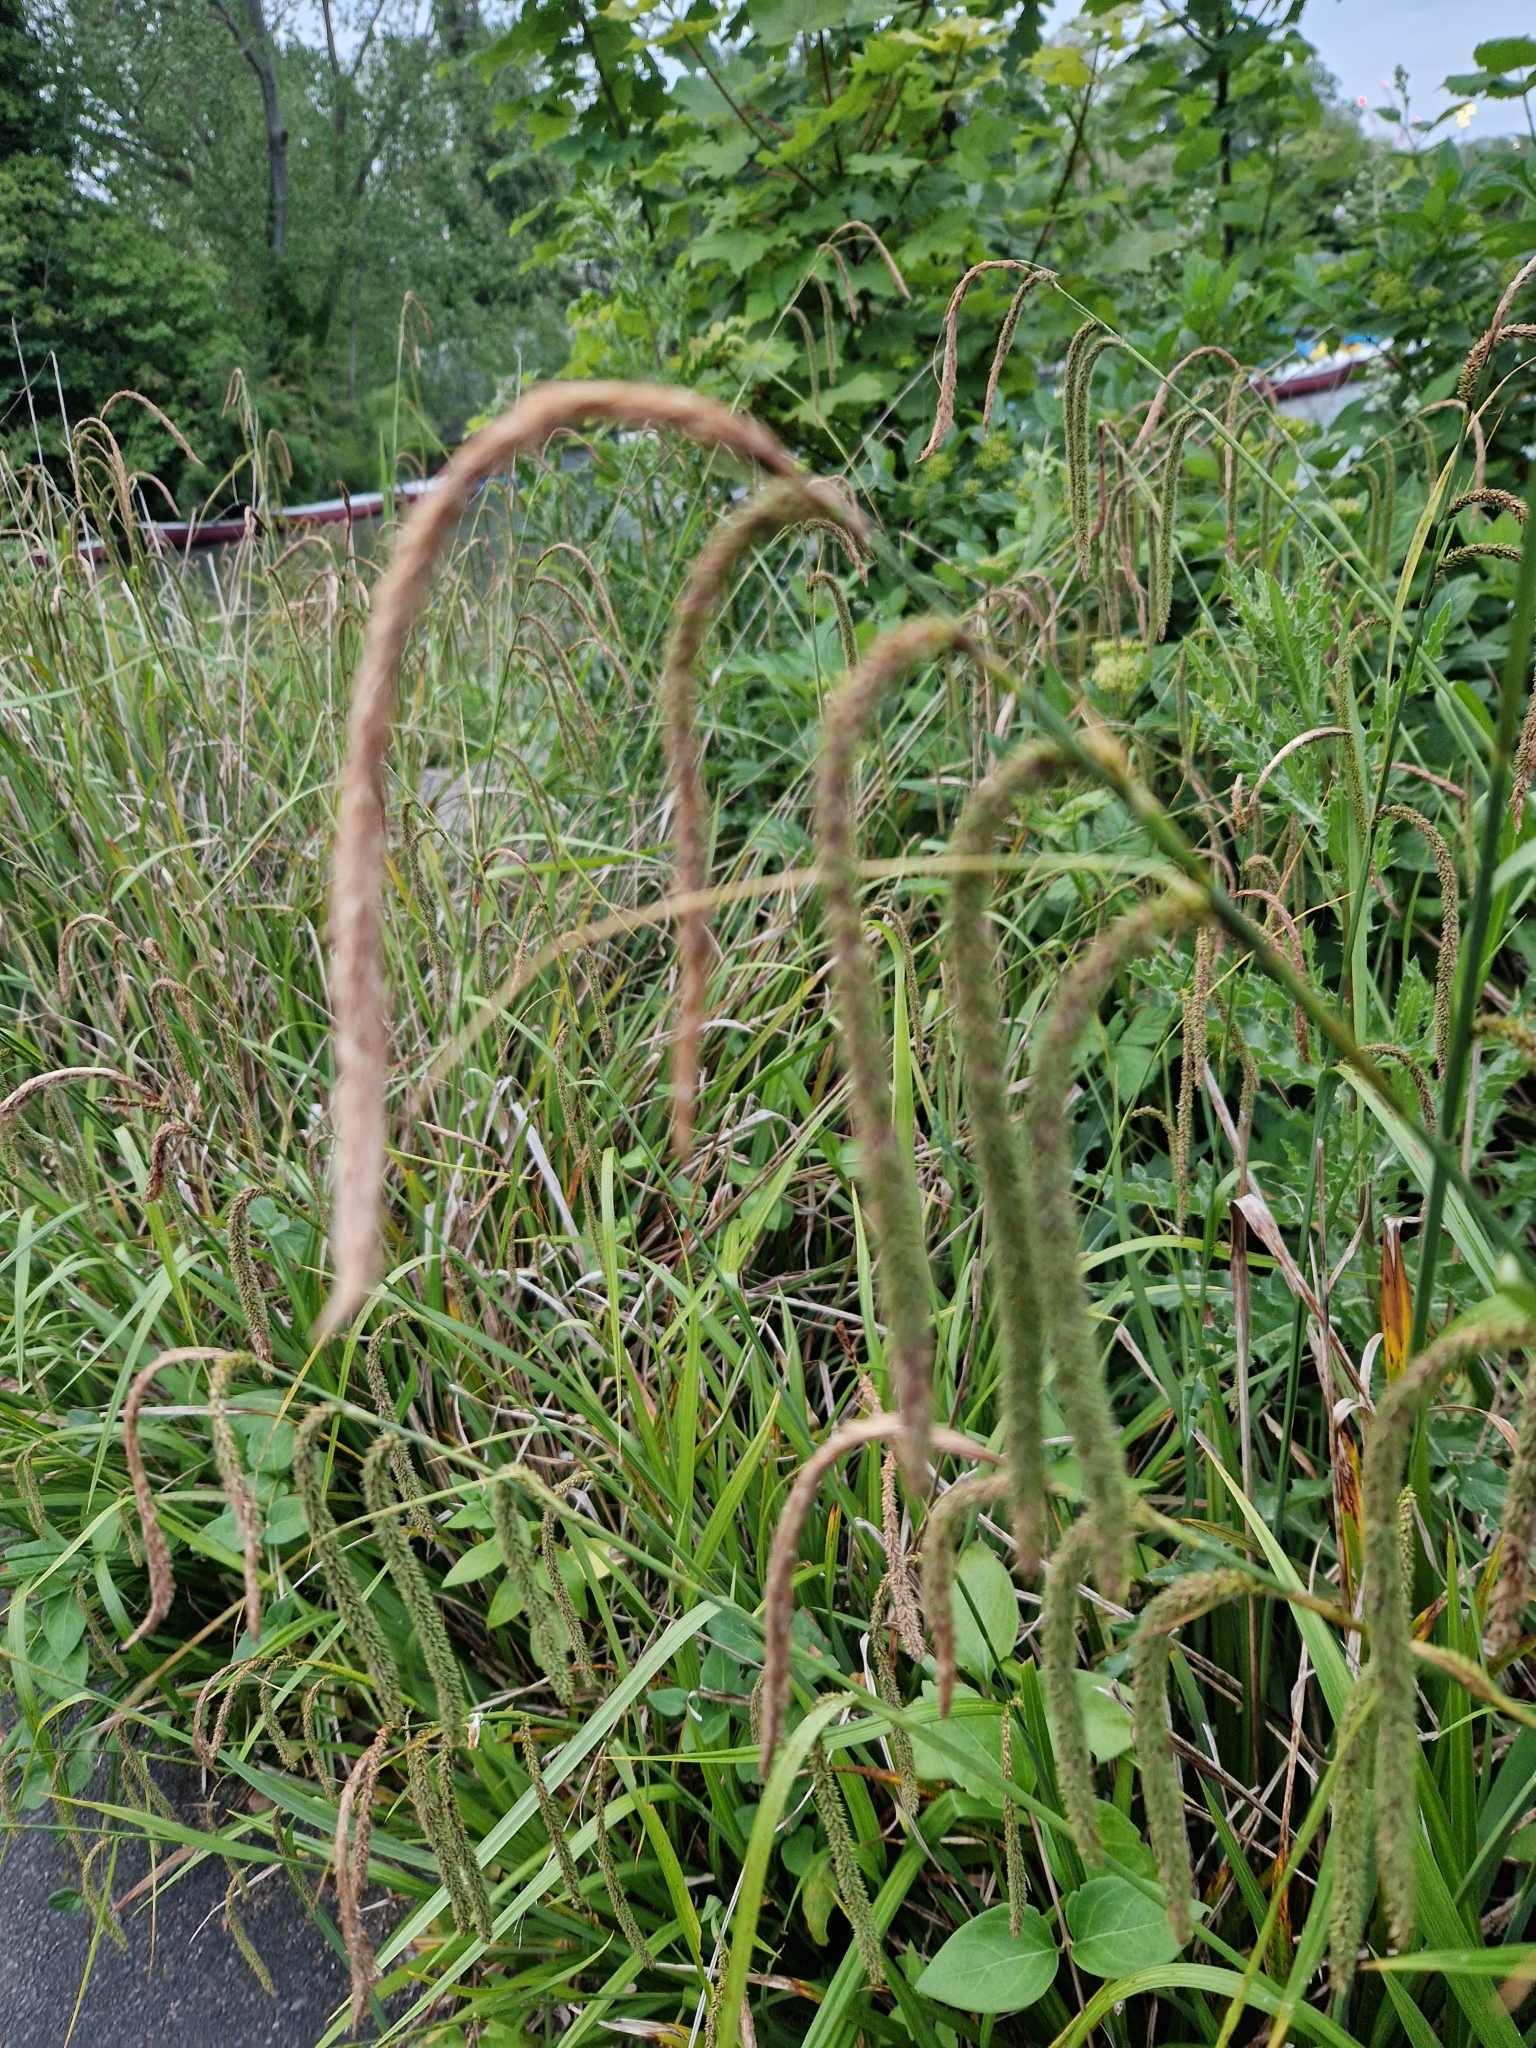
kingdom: Plantae
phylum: Tracheophyta
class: Liliopsida
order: Poales
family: Cyperaceae
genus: Carex
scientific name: Carex pendula
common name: Pendulous sedge
